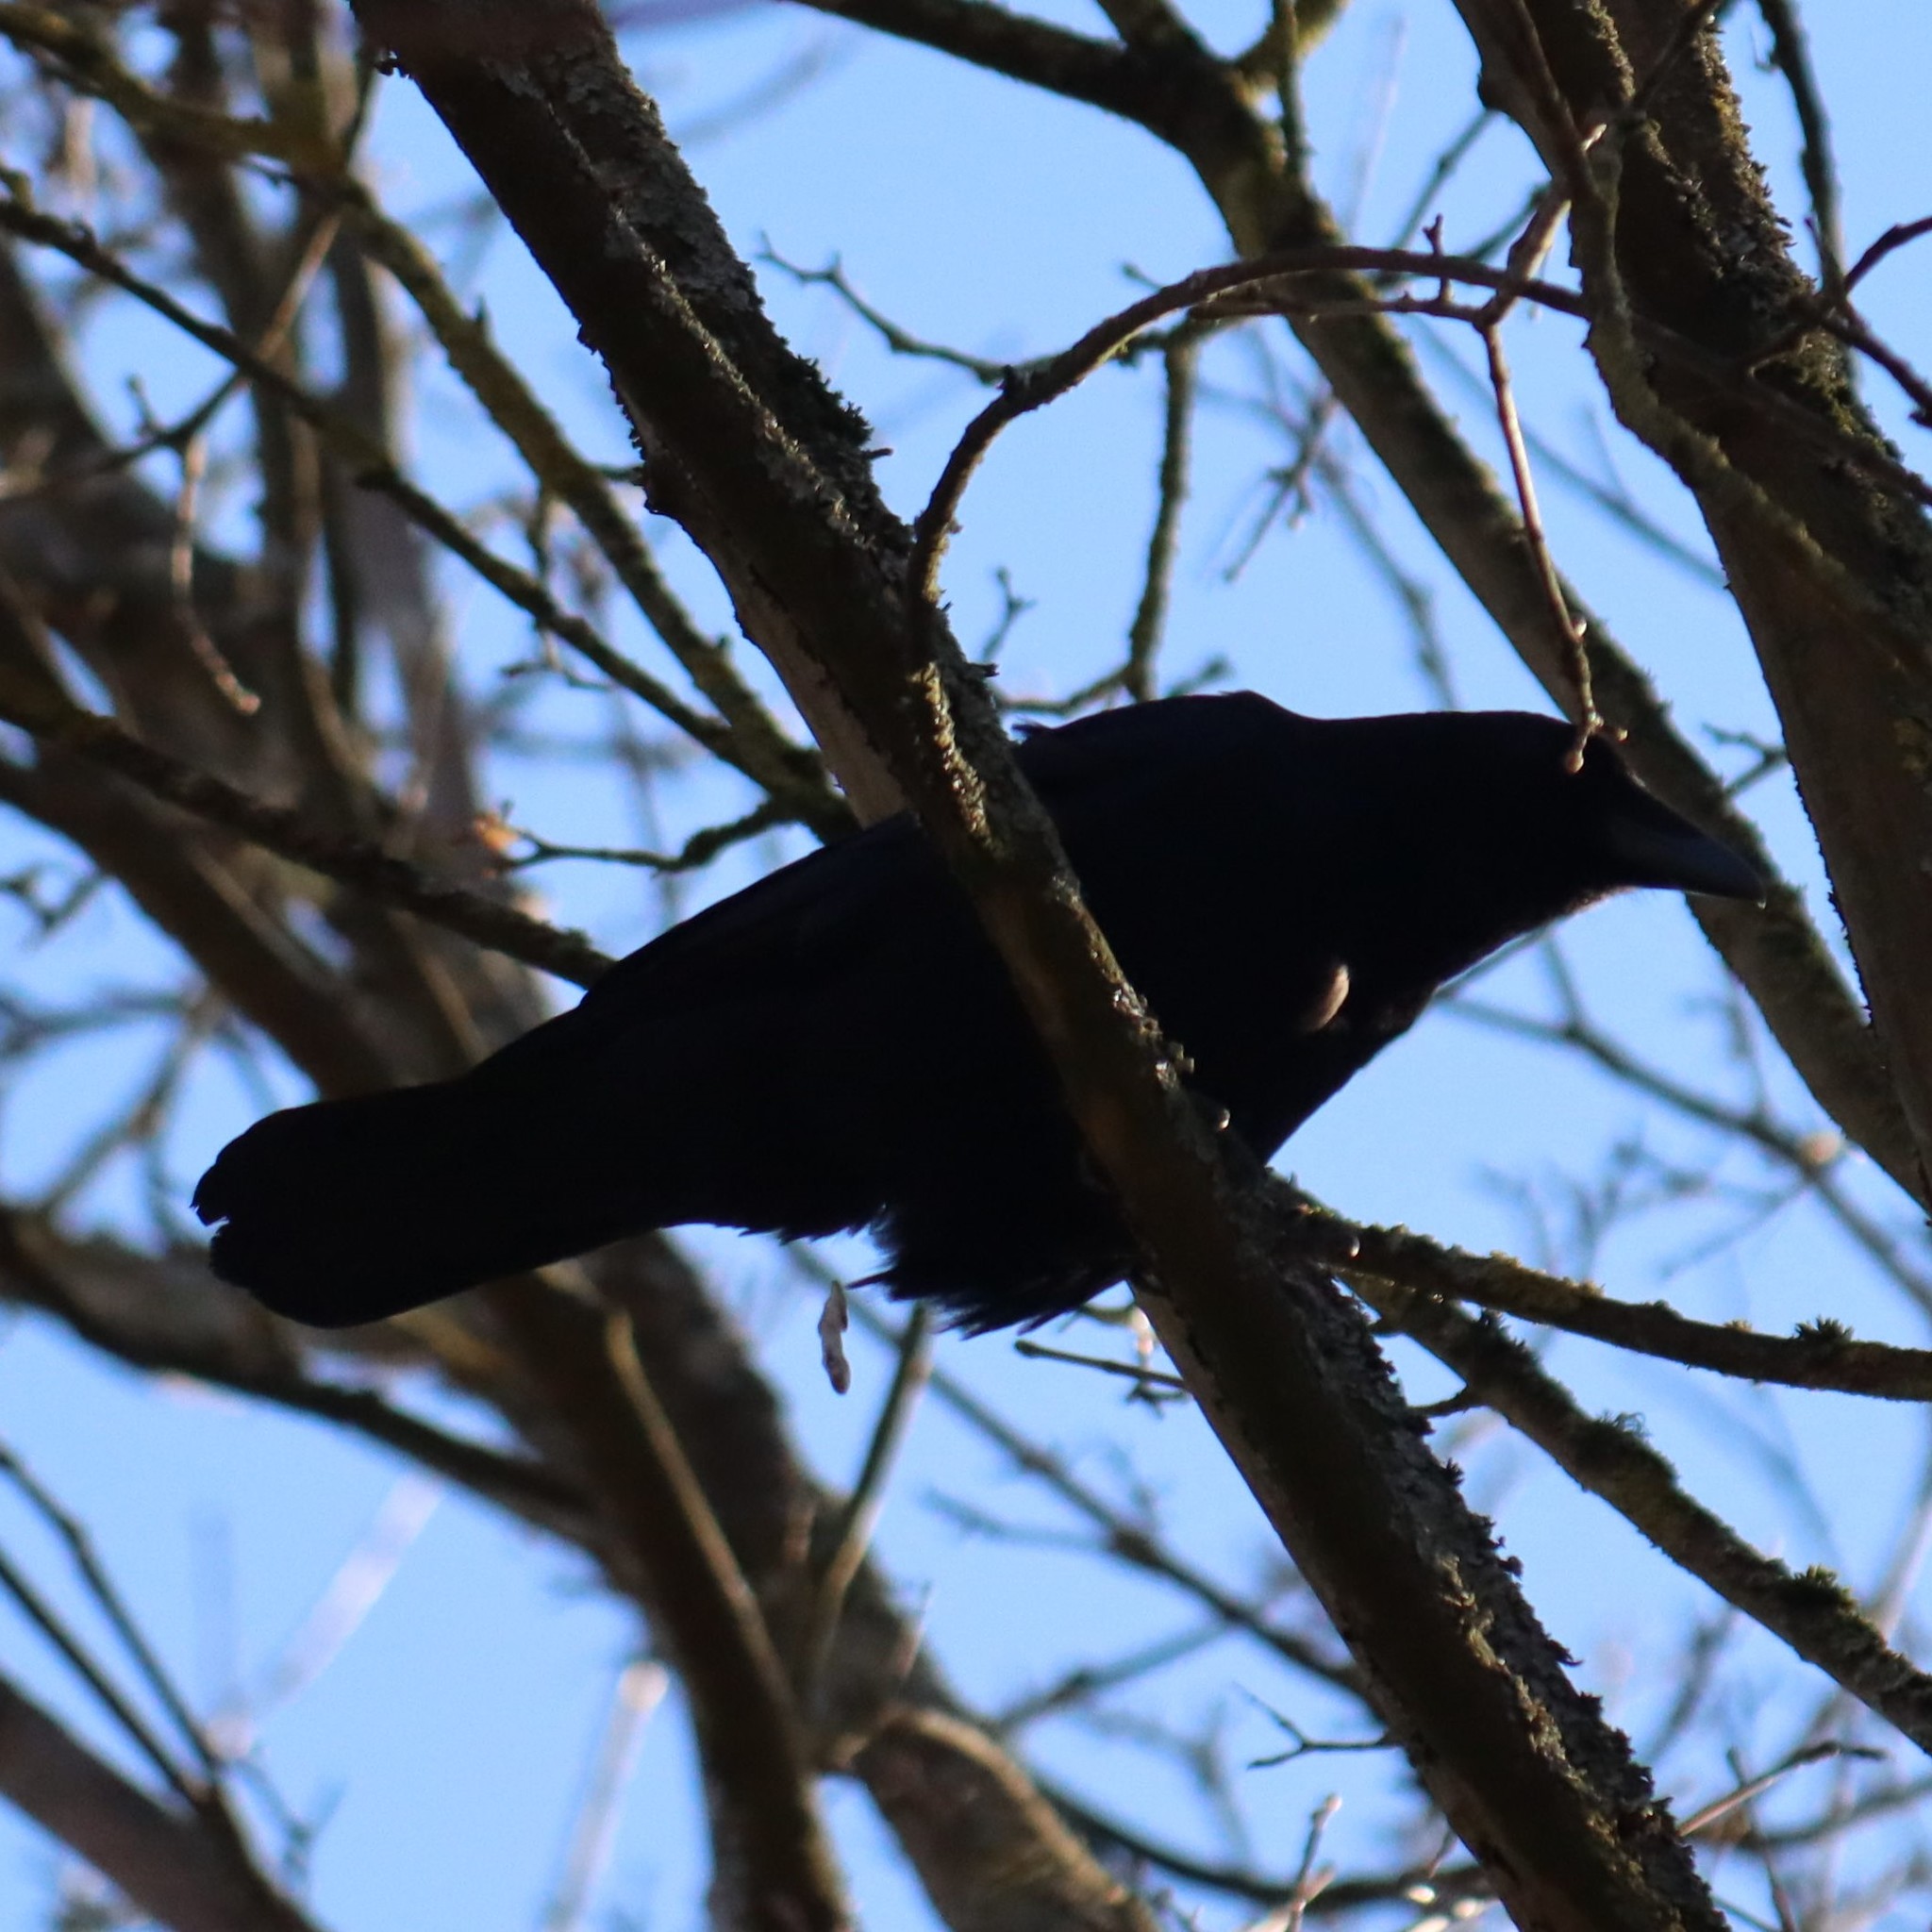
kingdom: Animalia
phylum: Chordata
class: Aves
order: Passeriformes
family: Corvidae
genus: Corvus
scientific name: Corvus corone
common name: Carrion crow
